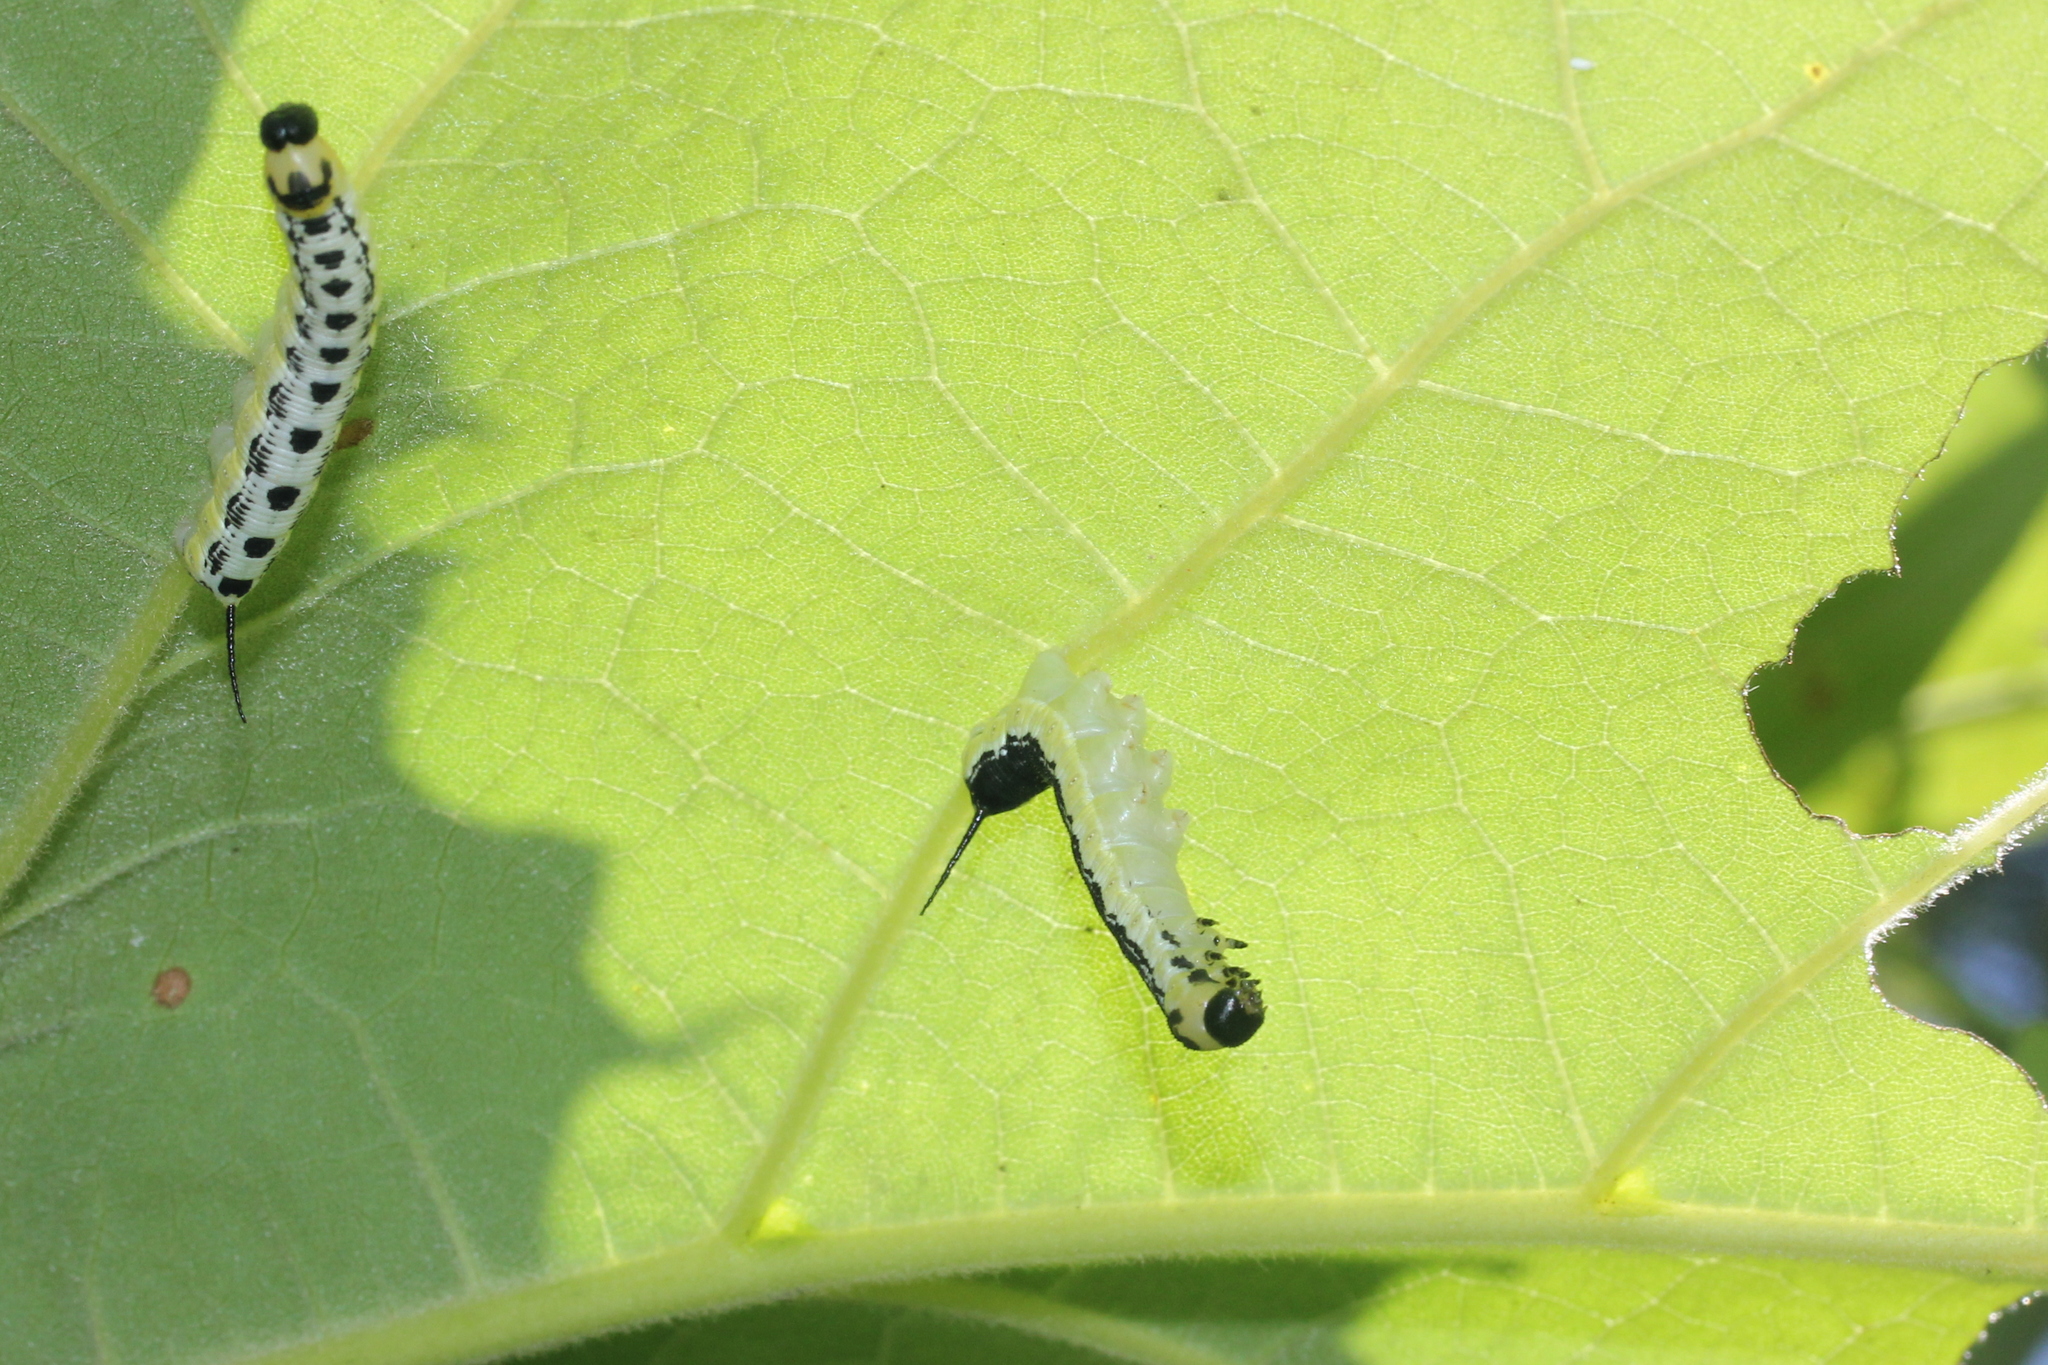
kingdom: Animalia
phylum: Arthropoda
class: Insecta
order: Lepidoptera
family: Sphingidae
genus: Ceratomia
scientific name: Ceratomia catalpae
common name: Catalpa hornworm
